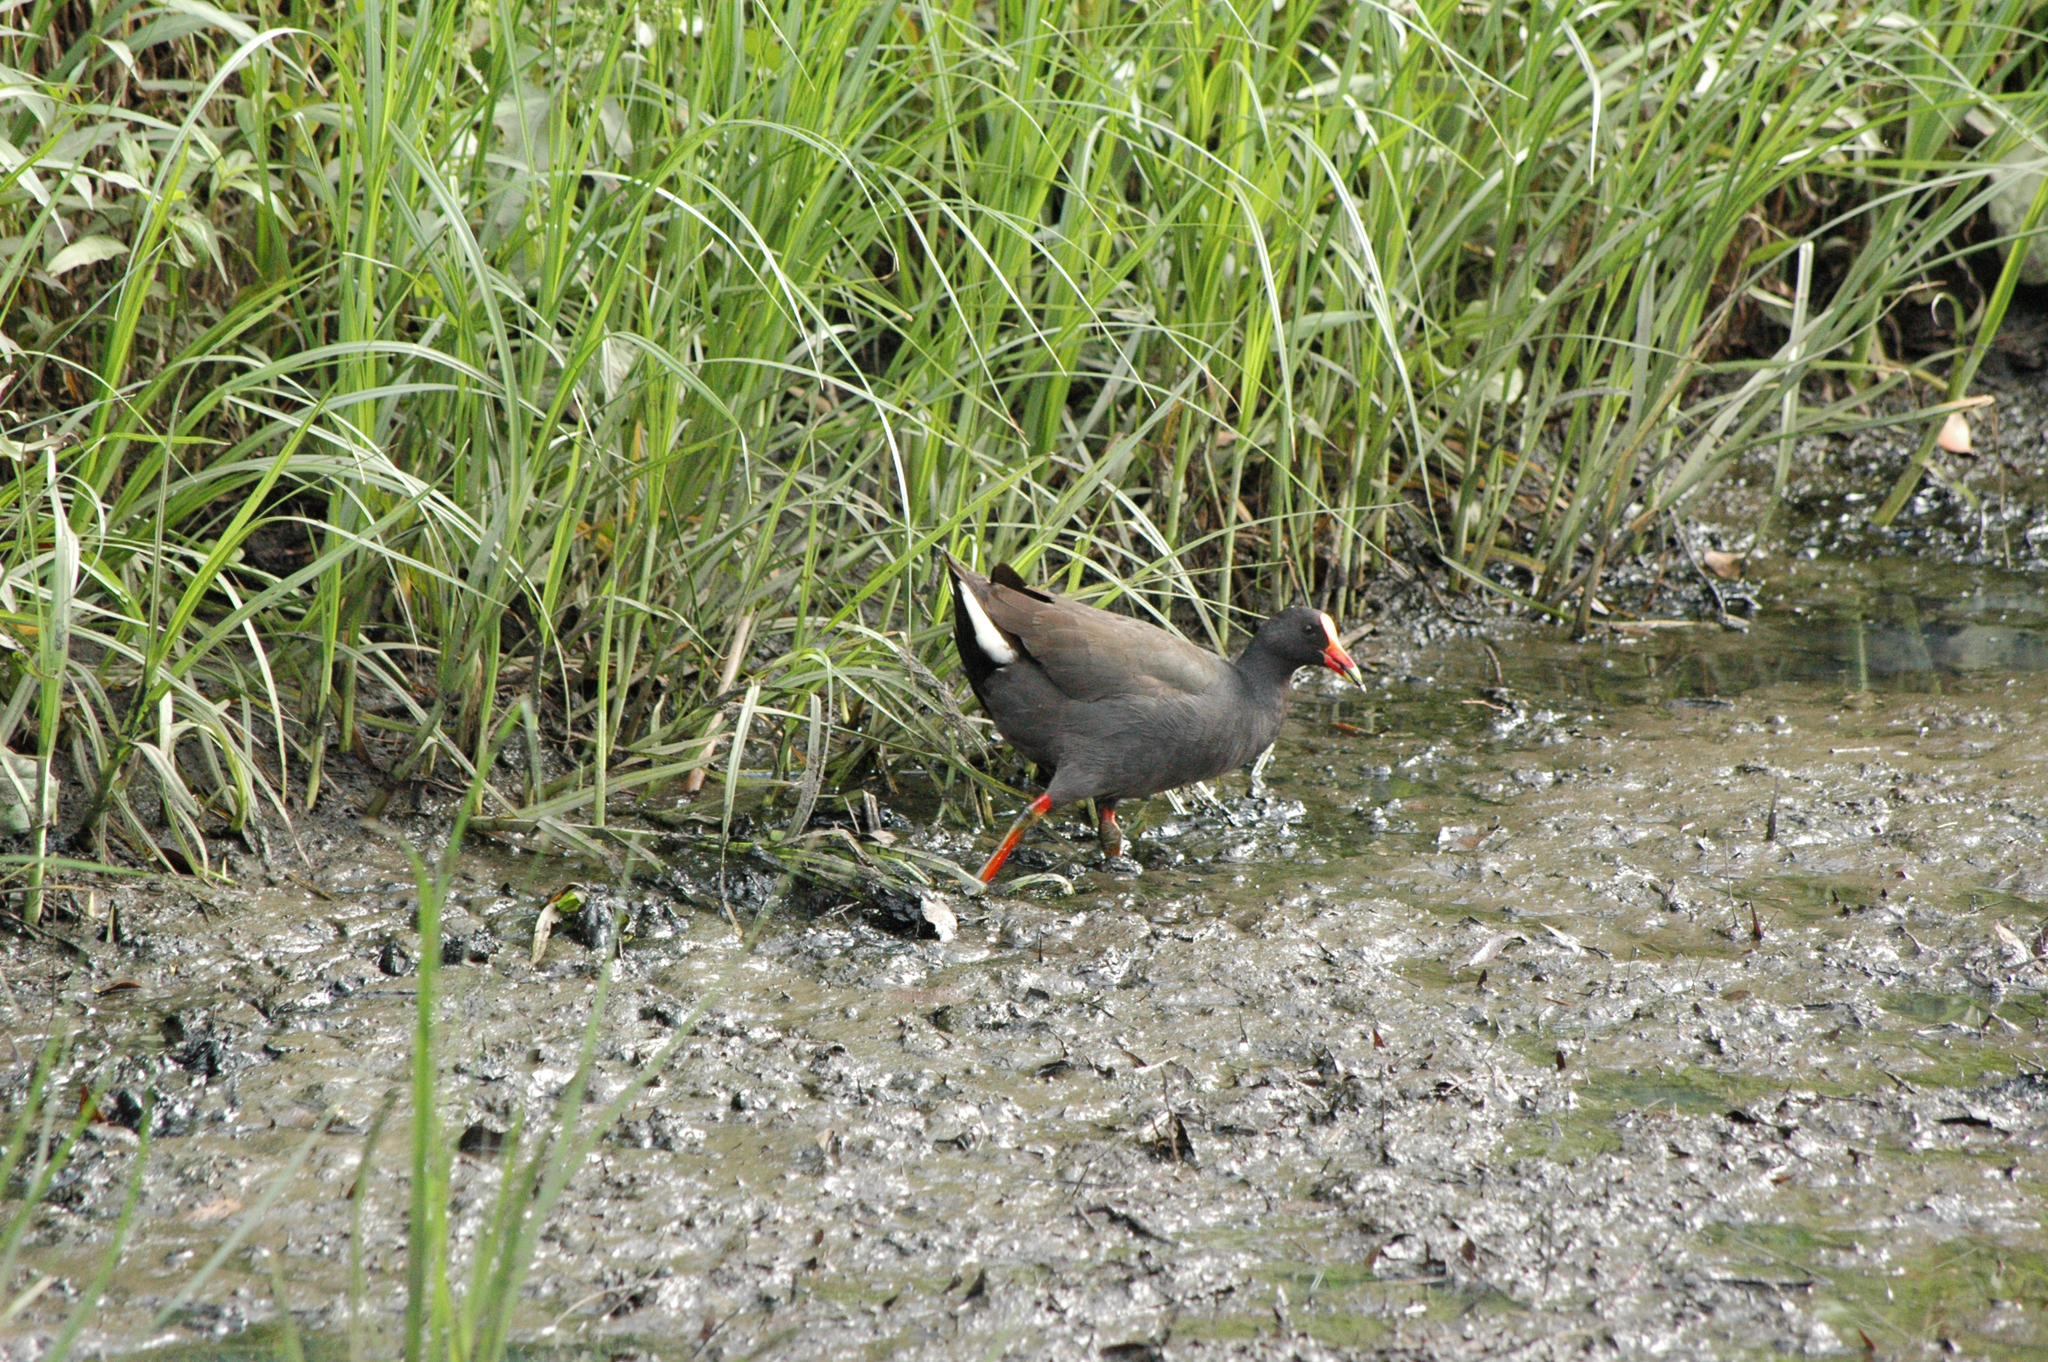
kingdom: Animalia
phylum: Chordata
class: Aves
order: Gruiformes
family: Rallidae
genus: Gallinula
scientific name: Gallinula tenebrosa
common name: Dusky moorhen
